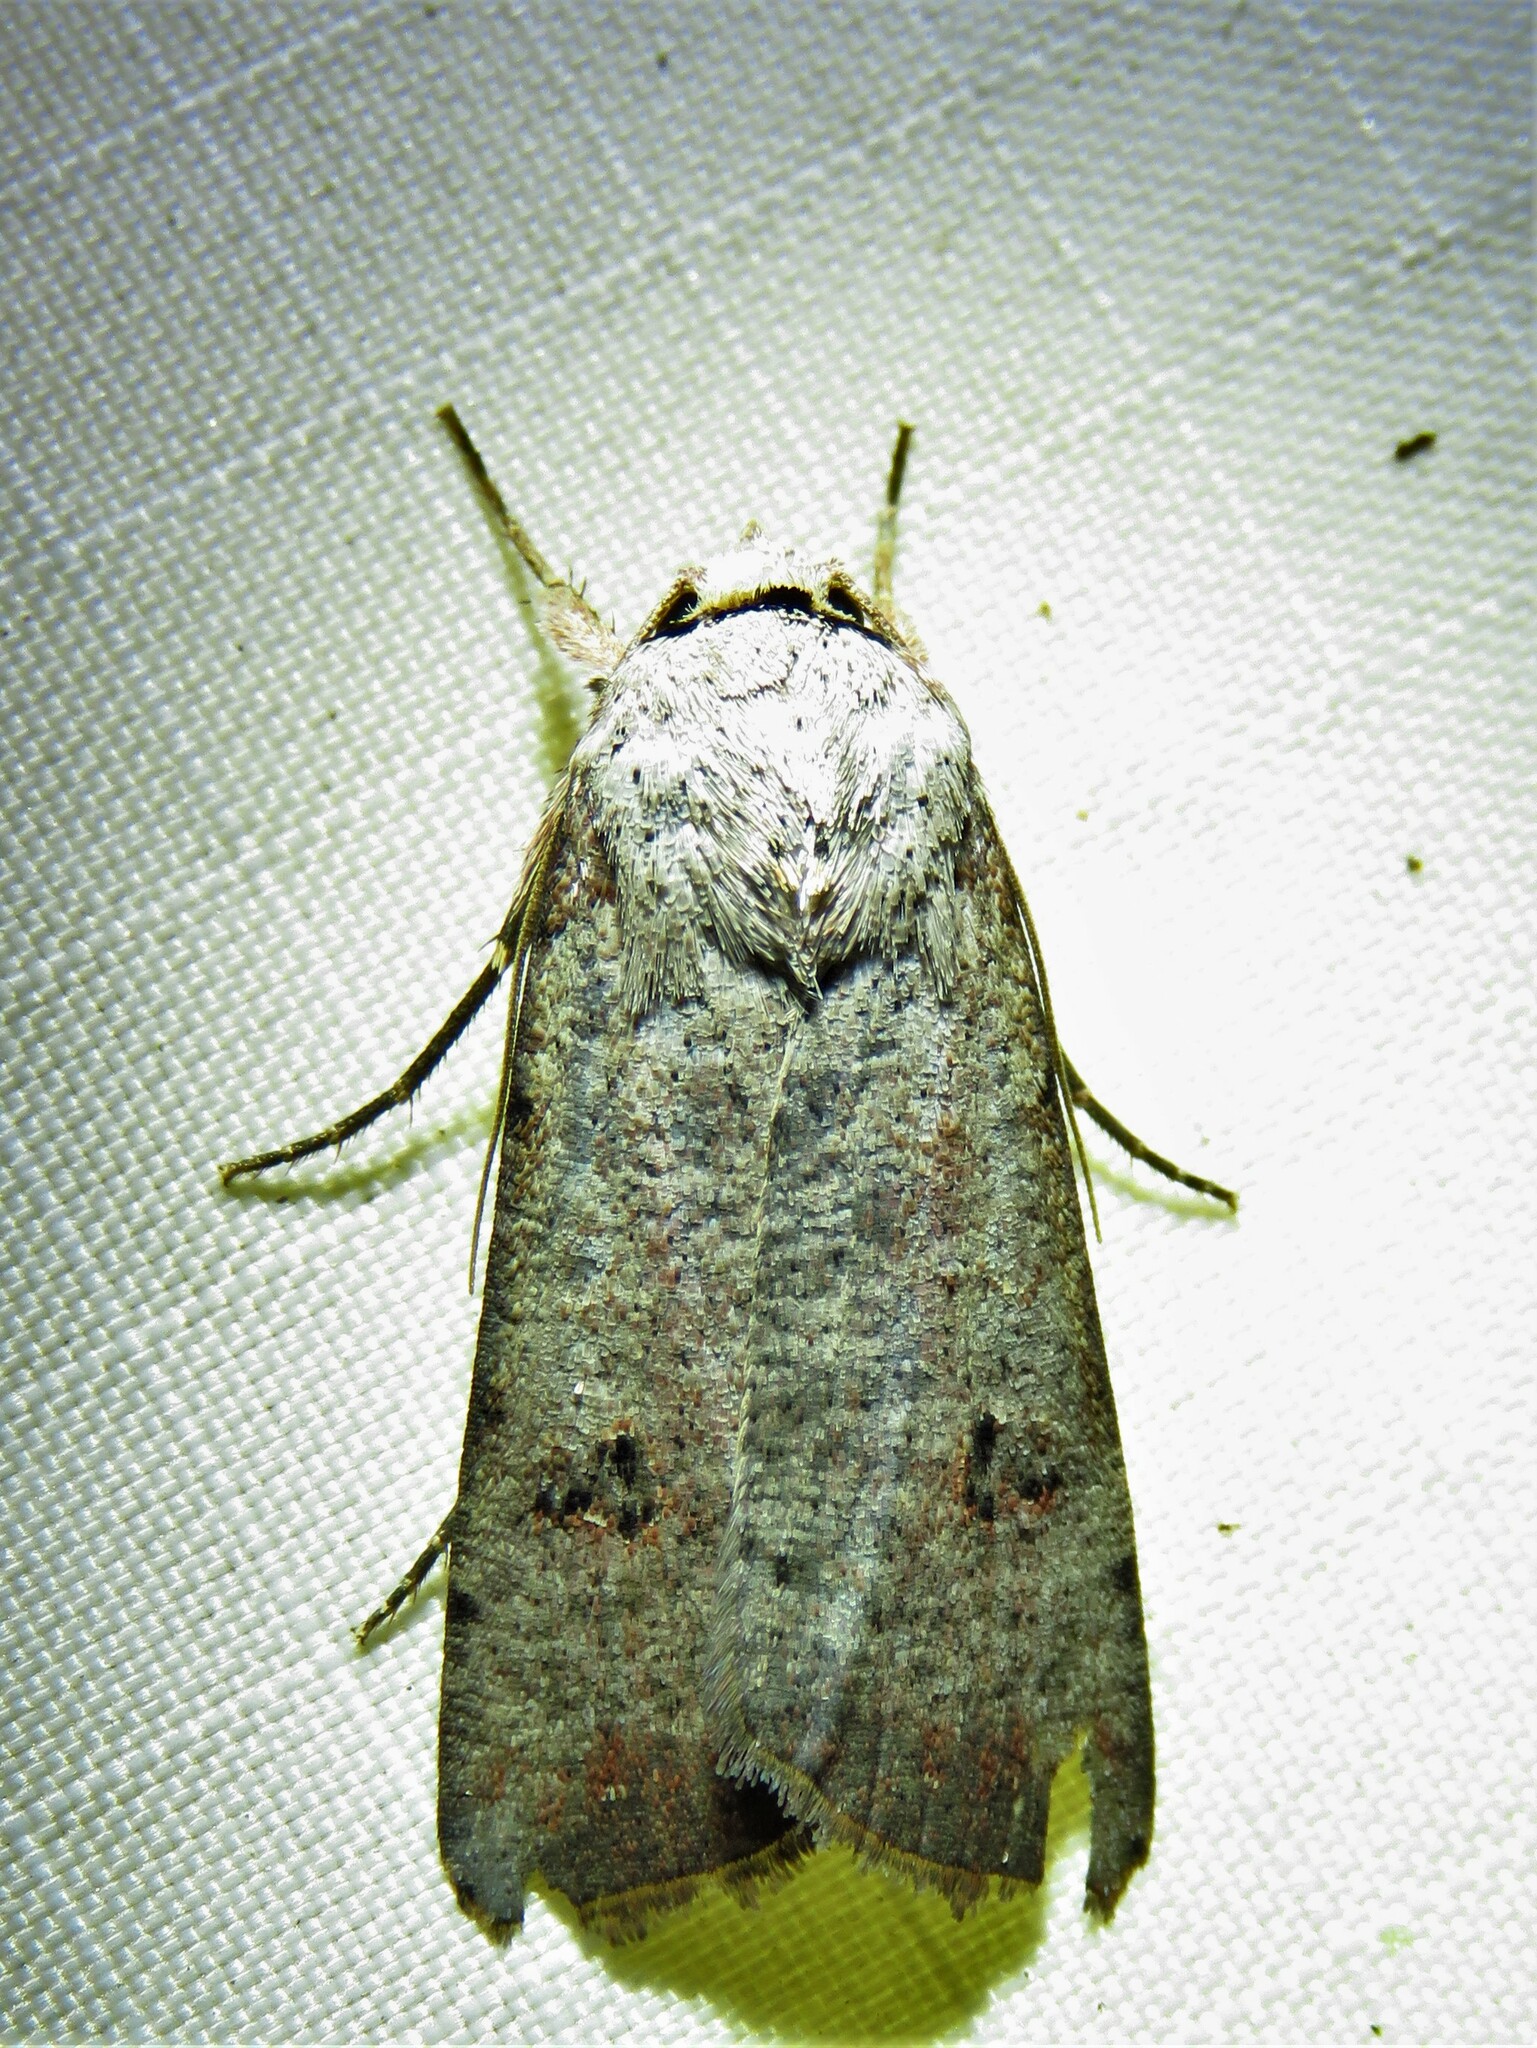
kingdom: Animalia
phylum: Arthropoda
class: Insecta
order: Lepidoptera
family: Noctuidae
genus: Anicla
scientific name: Anicla infecta
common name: Green cutworm
